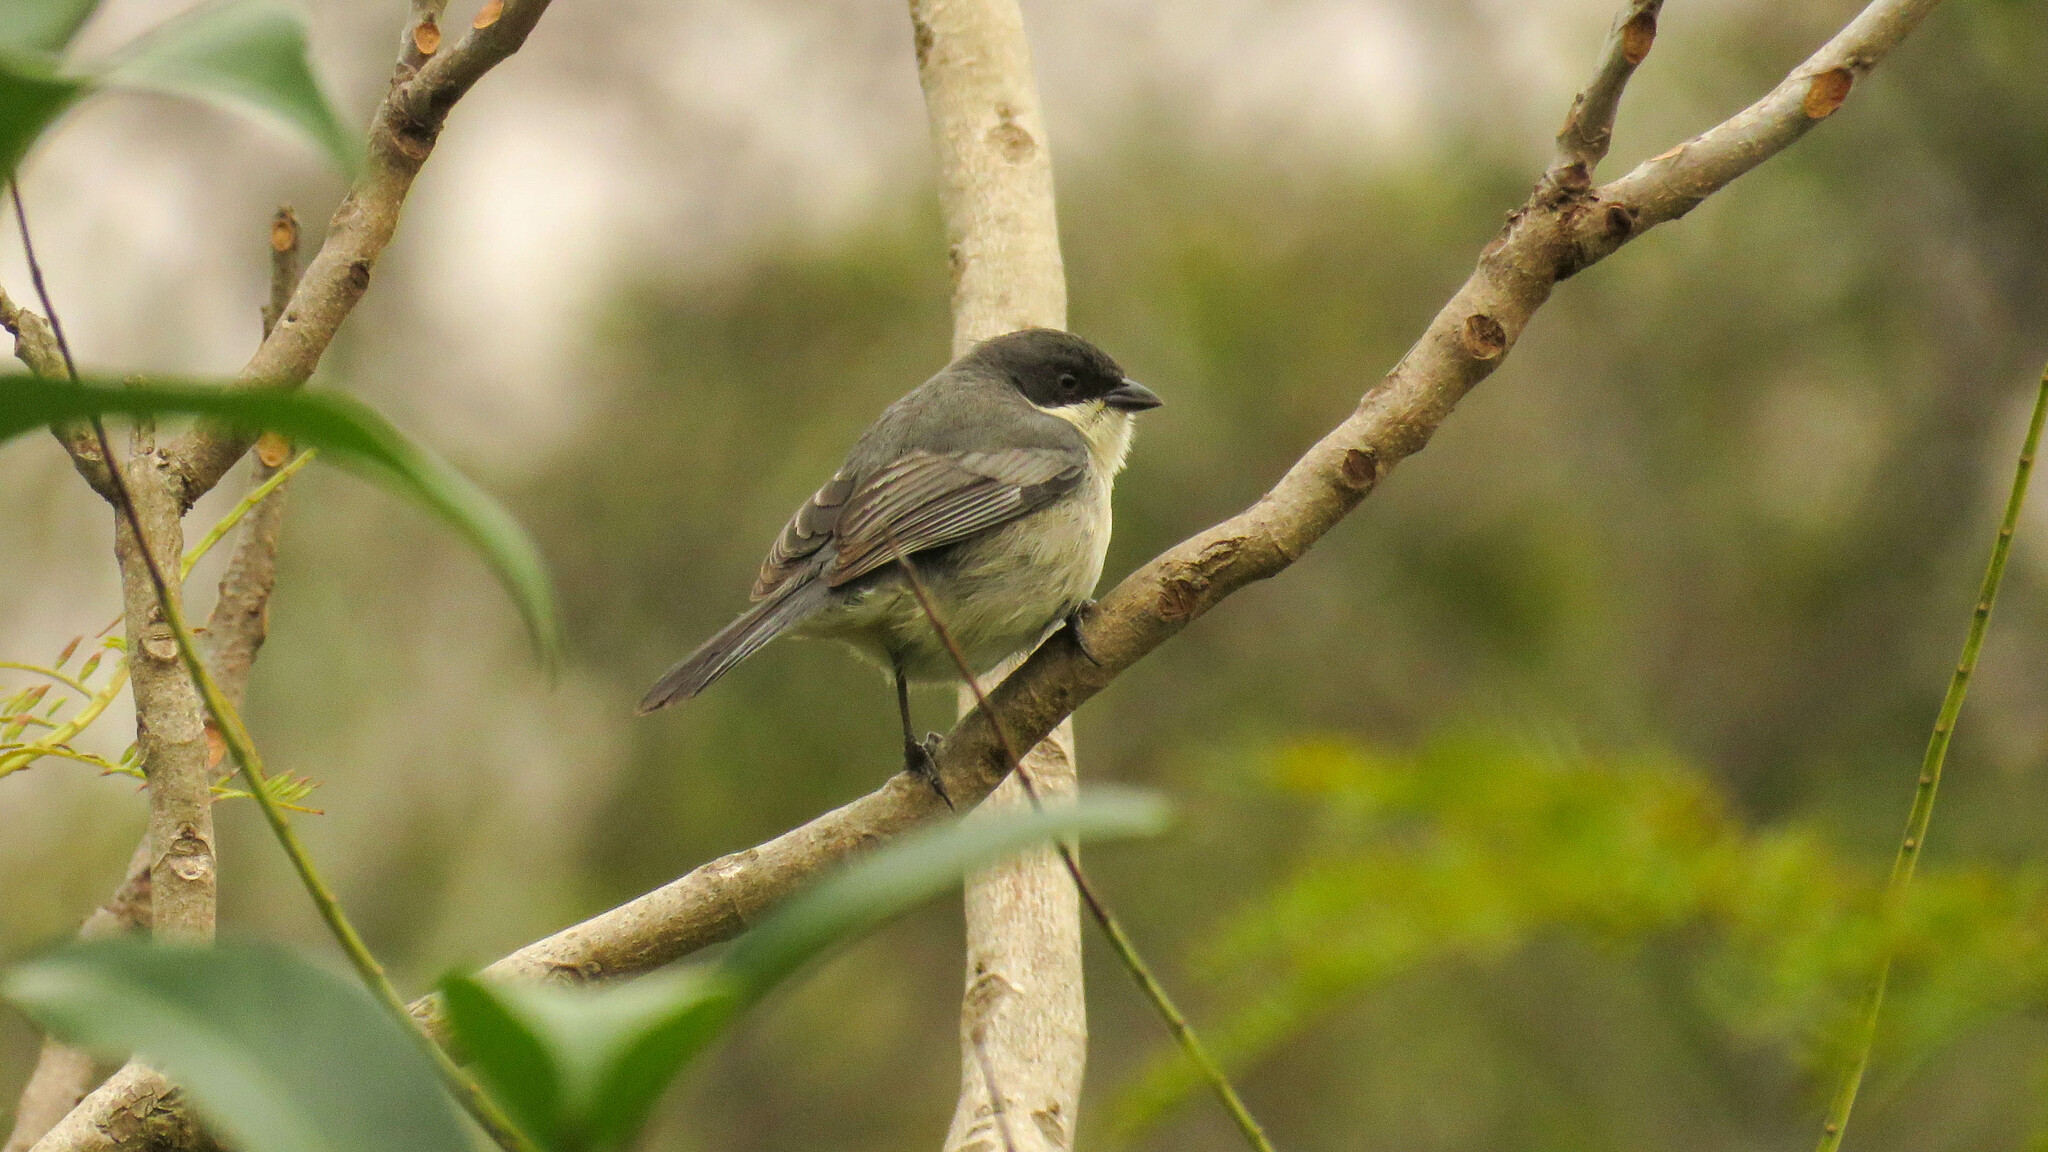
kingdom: Animalia
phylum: Chordata
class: Aves
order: Passeriformes
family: Thraupidae
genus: Microspingus
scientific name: Microspingus melanoleucus
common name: Black-capped warbling-finch
